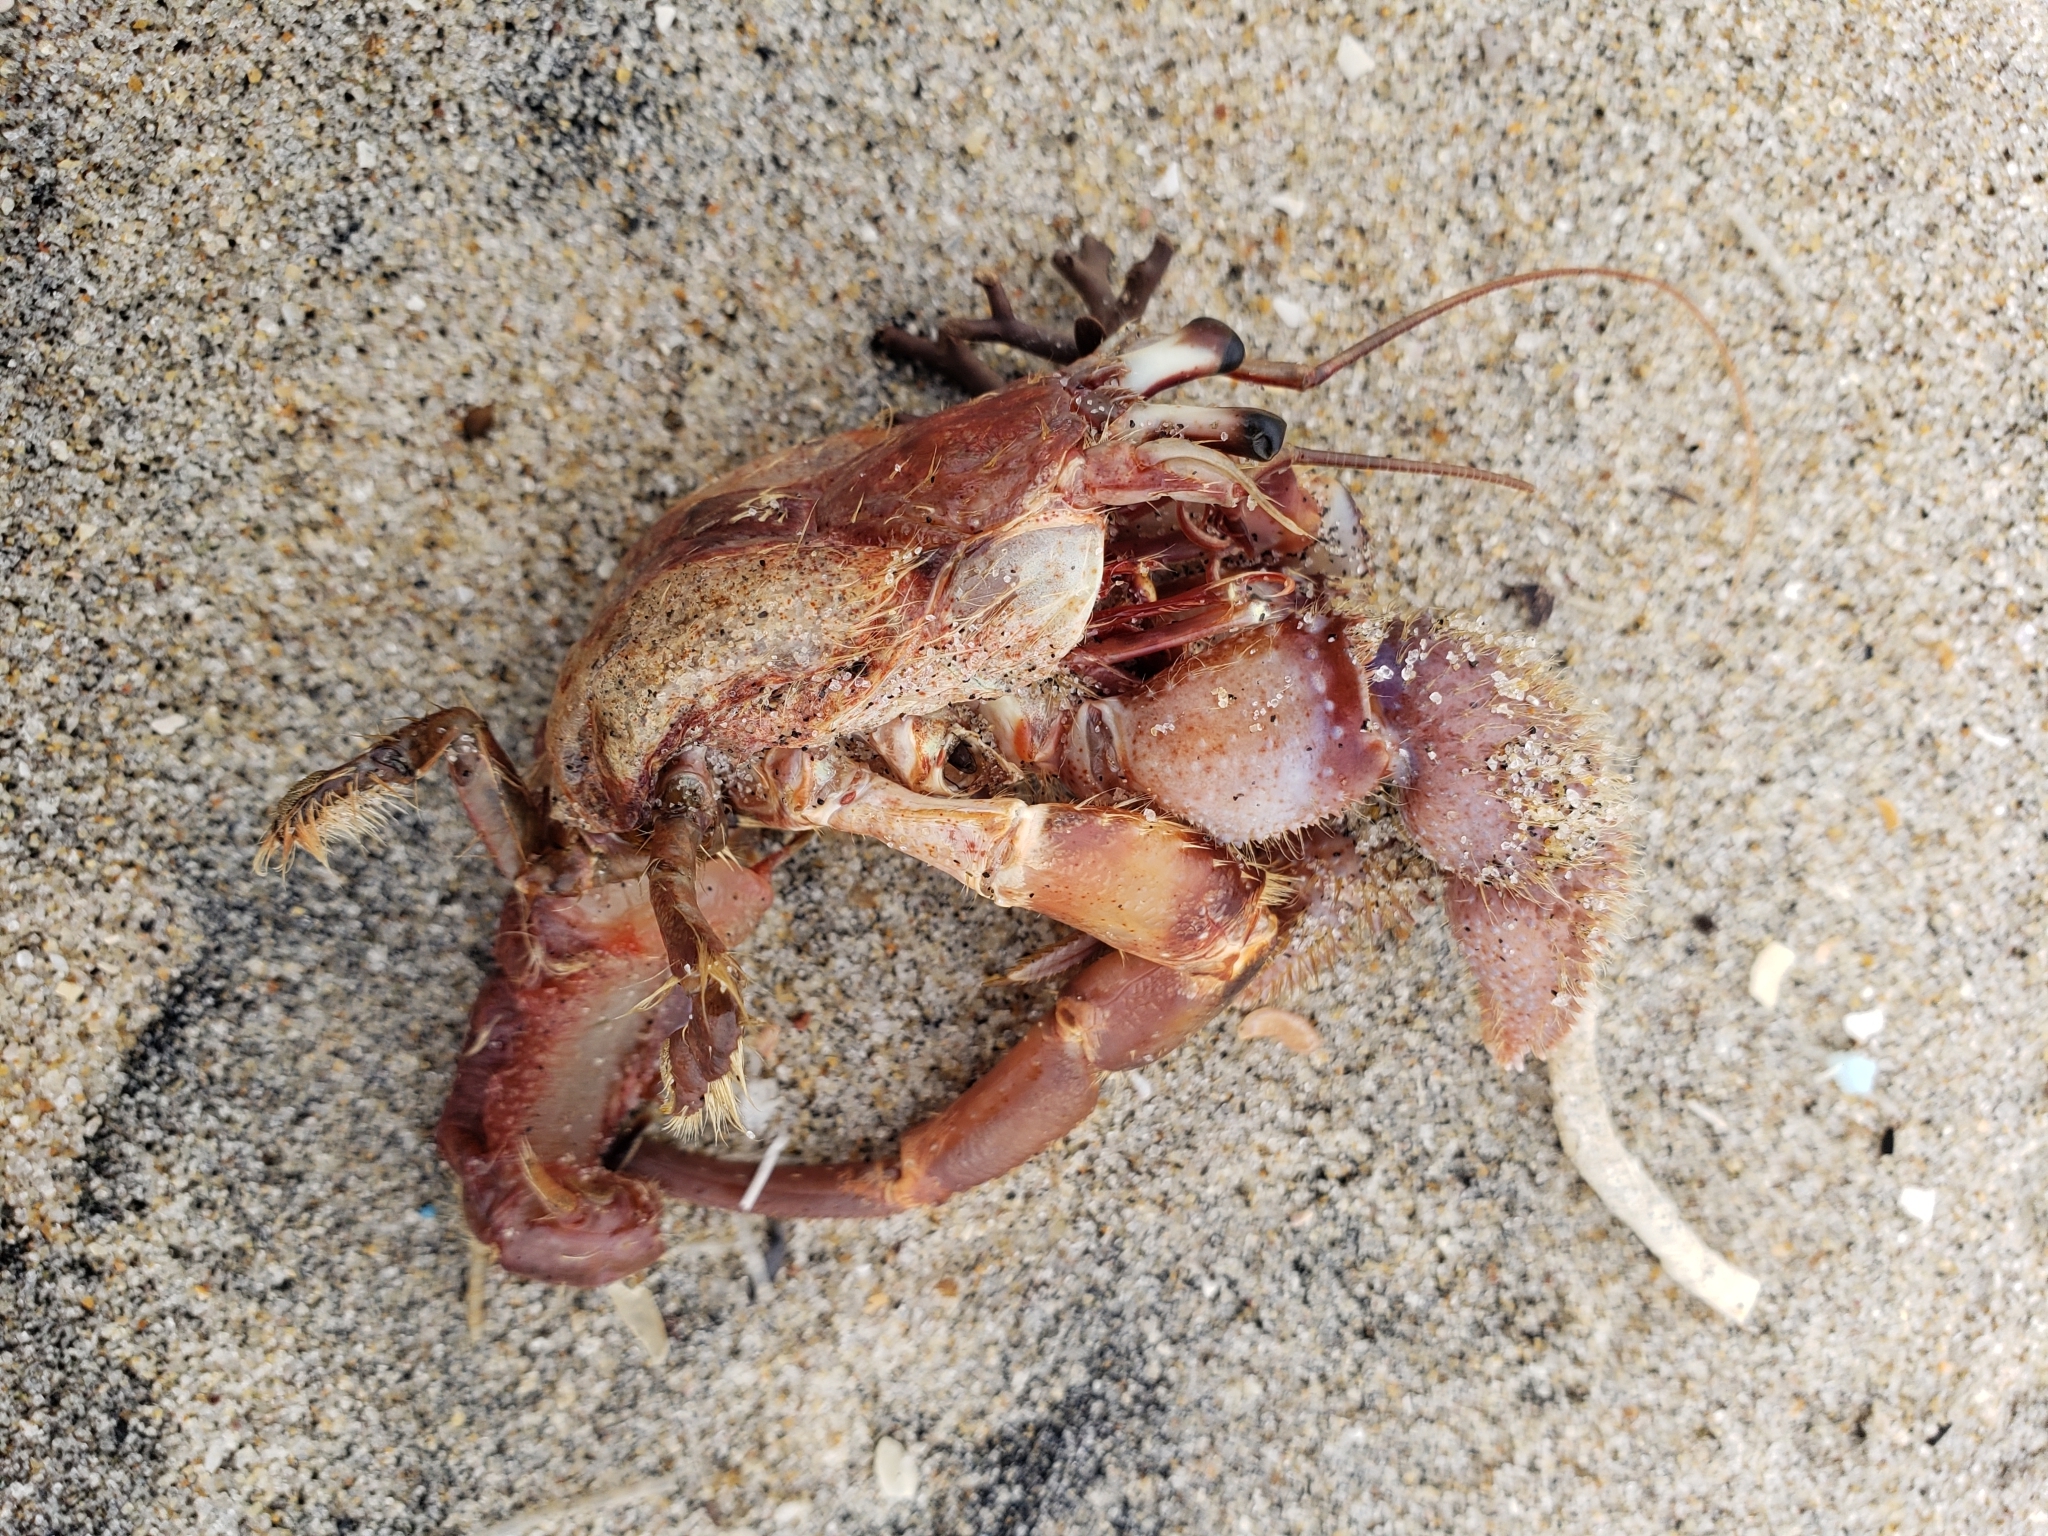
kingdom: Animalia
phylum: Arthropoda
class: Malacostraca
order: Decapoda
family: Paguridae
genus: Pagurus
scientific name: Pagurus spilocarpus
